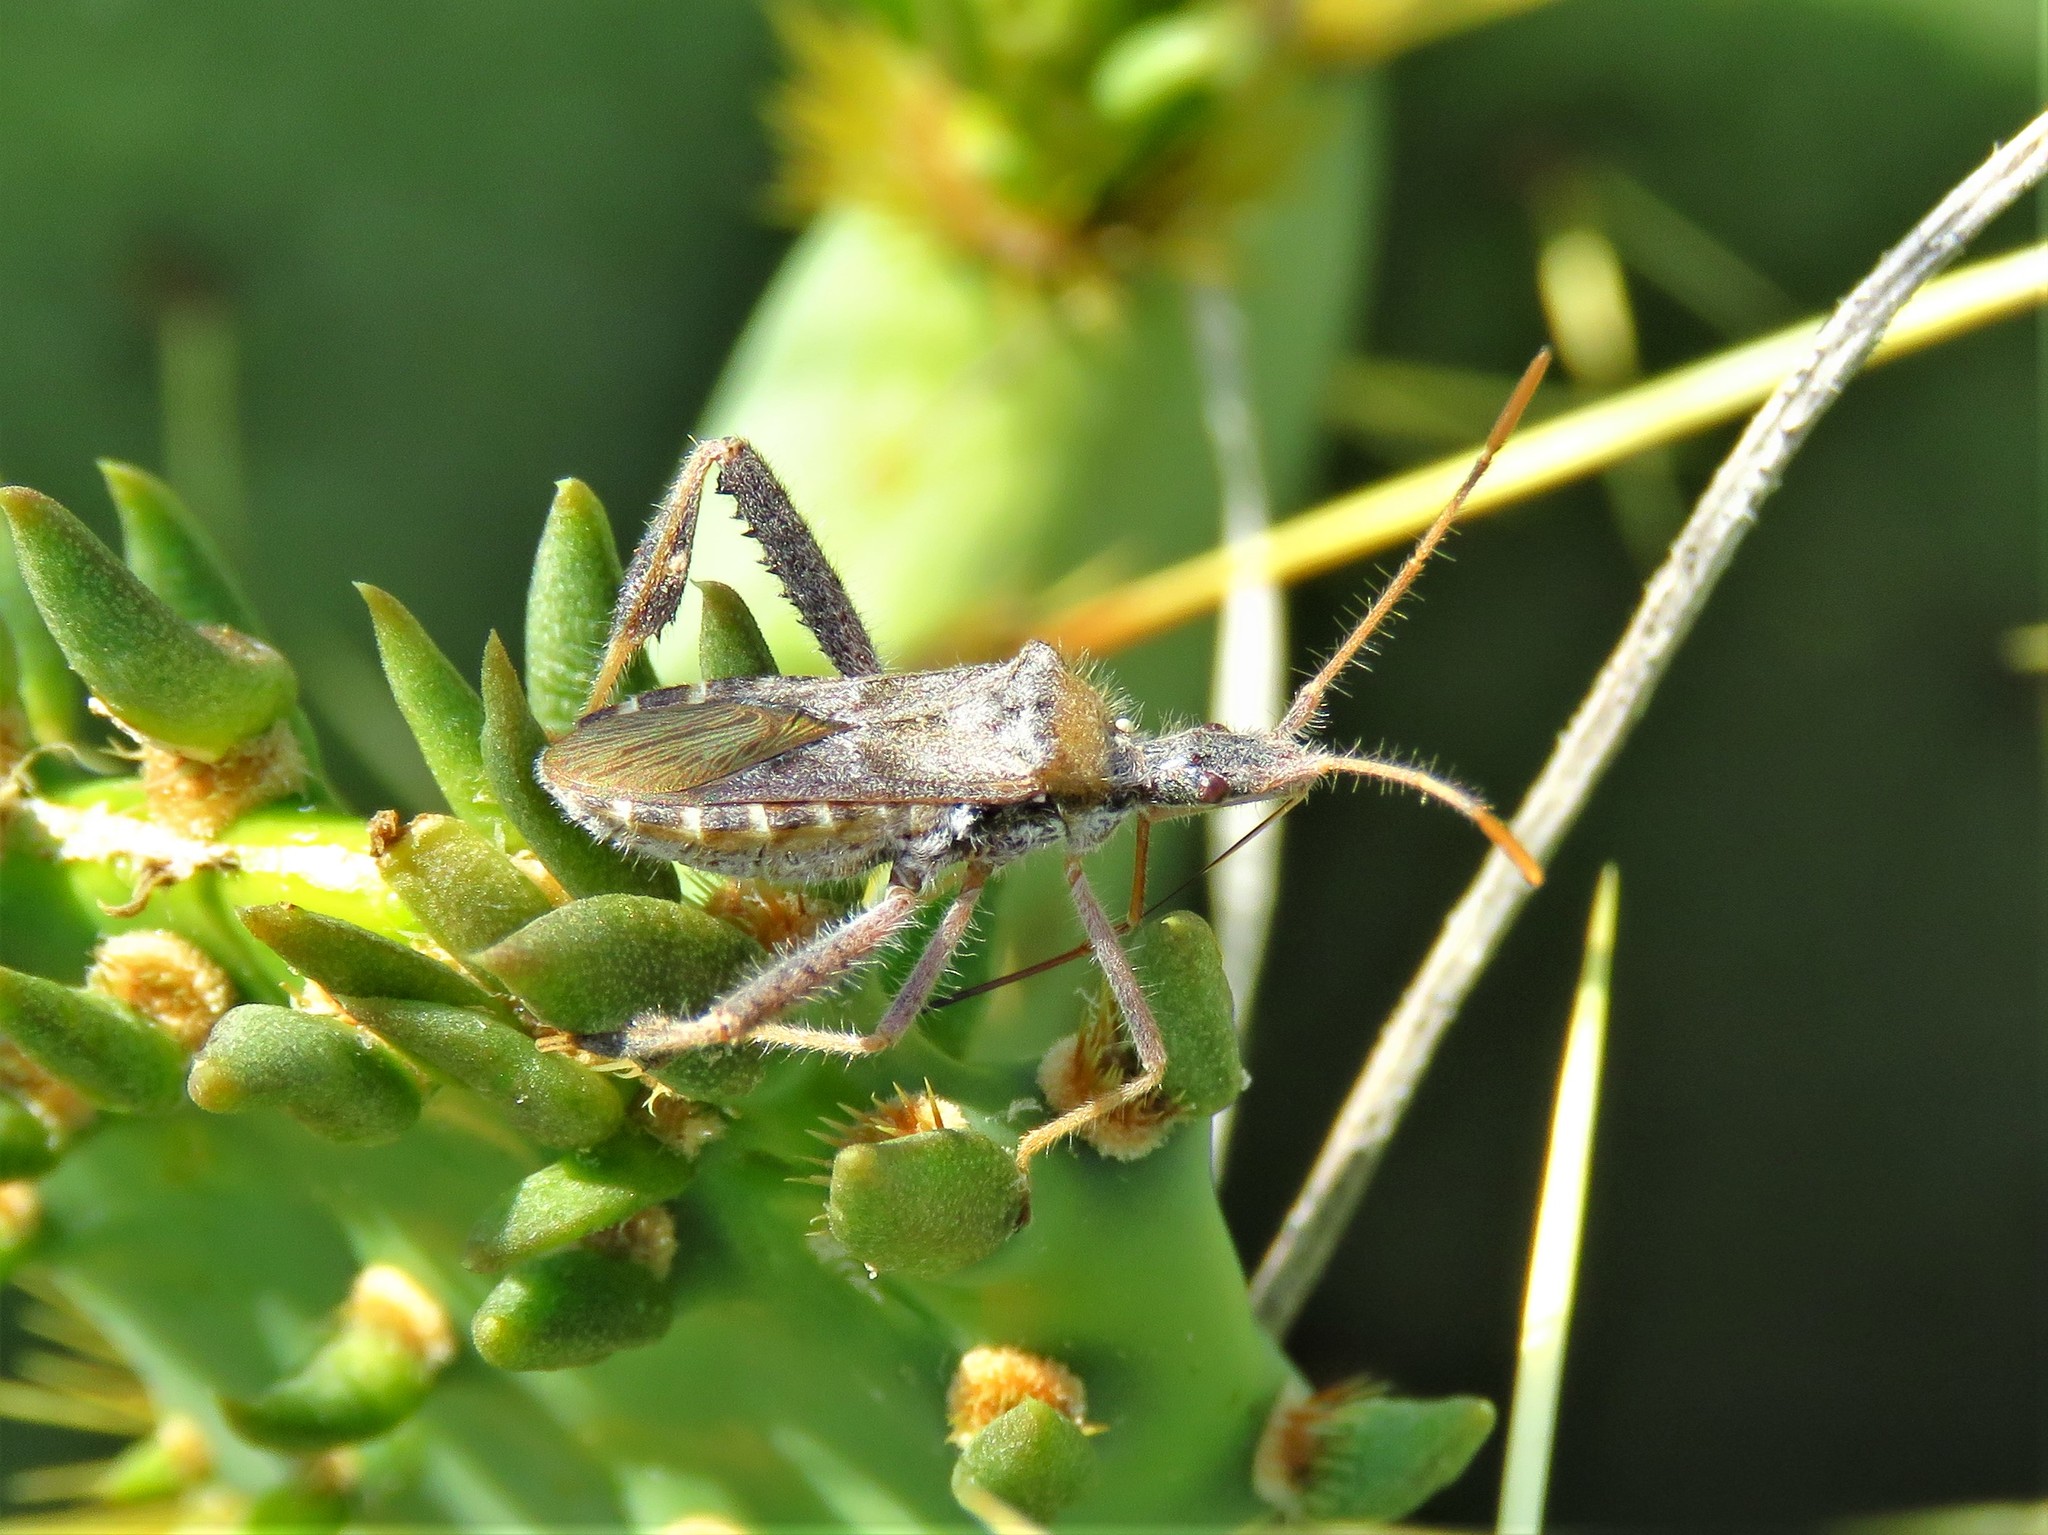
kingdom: Animalia
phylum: Arthropoda
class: Insecta
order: Hemiptera
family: Coreidae
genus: Narnia
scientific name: Narnia femorata
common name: Leaf-footed cactus bug
